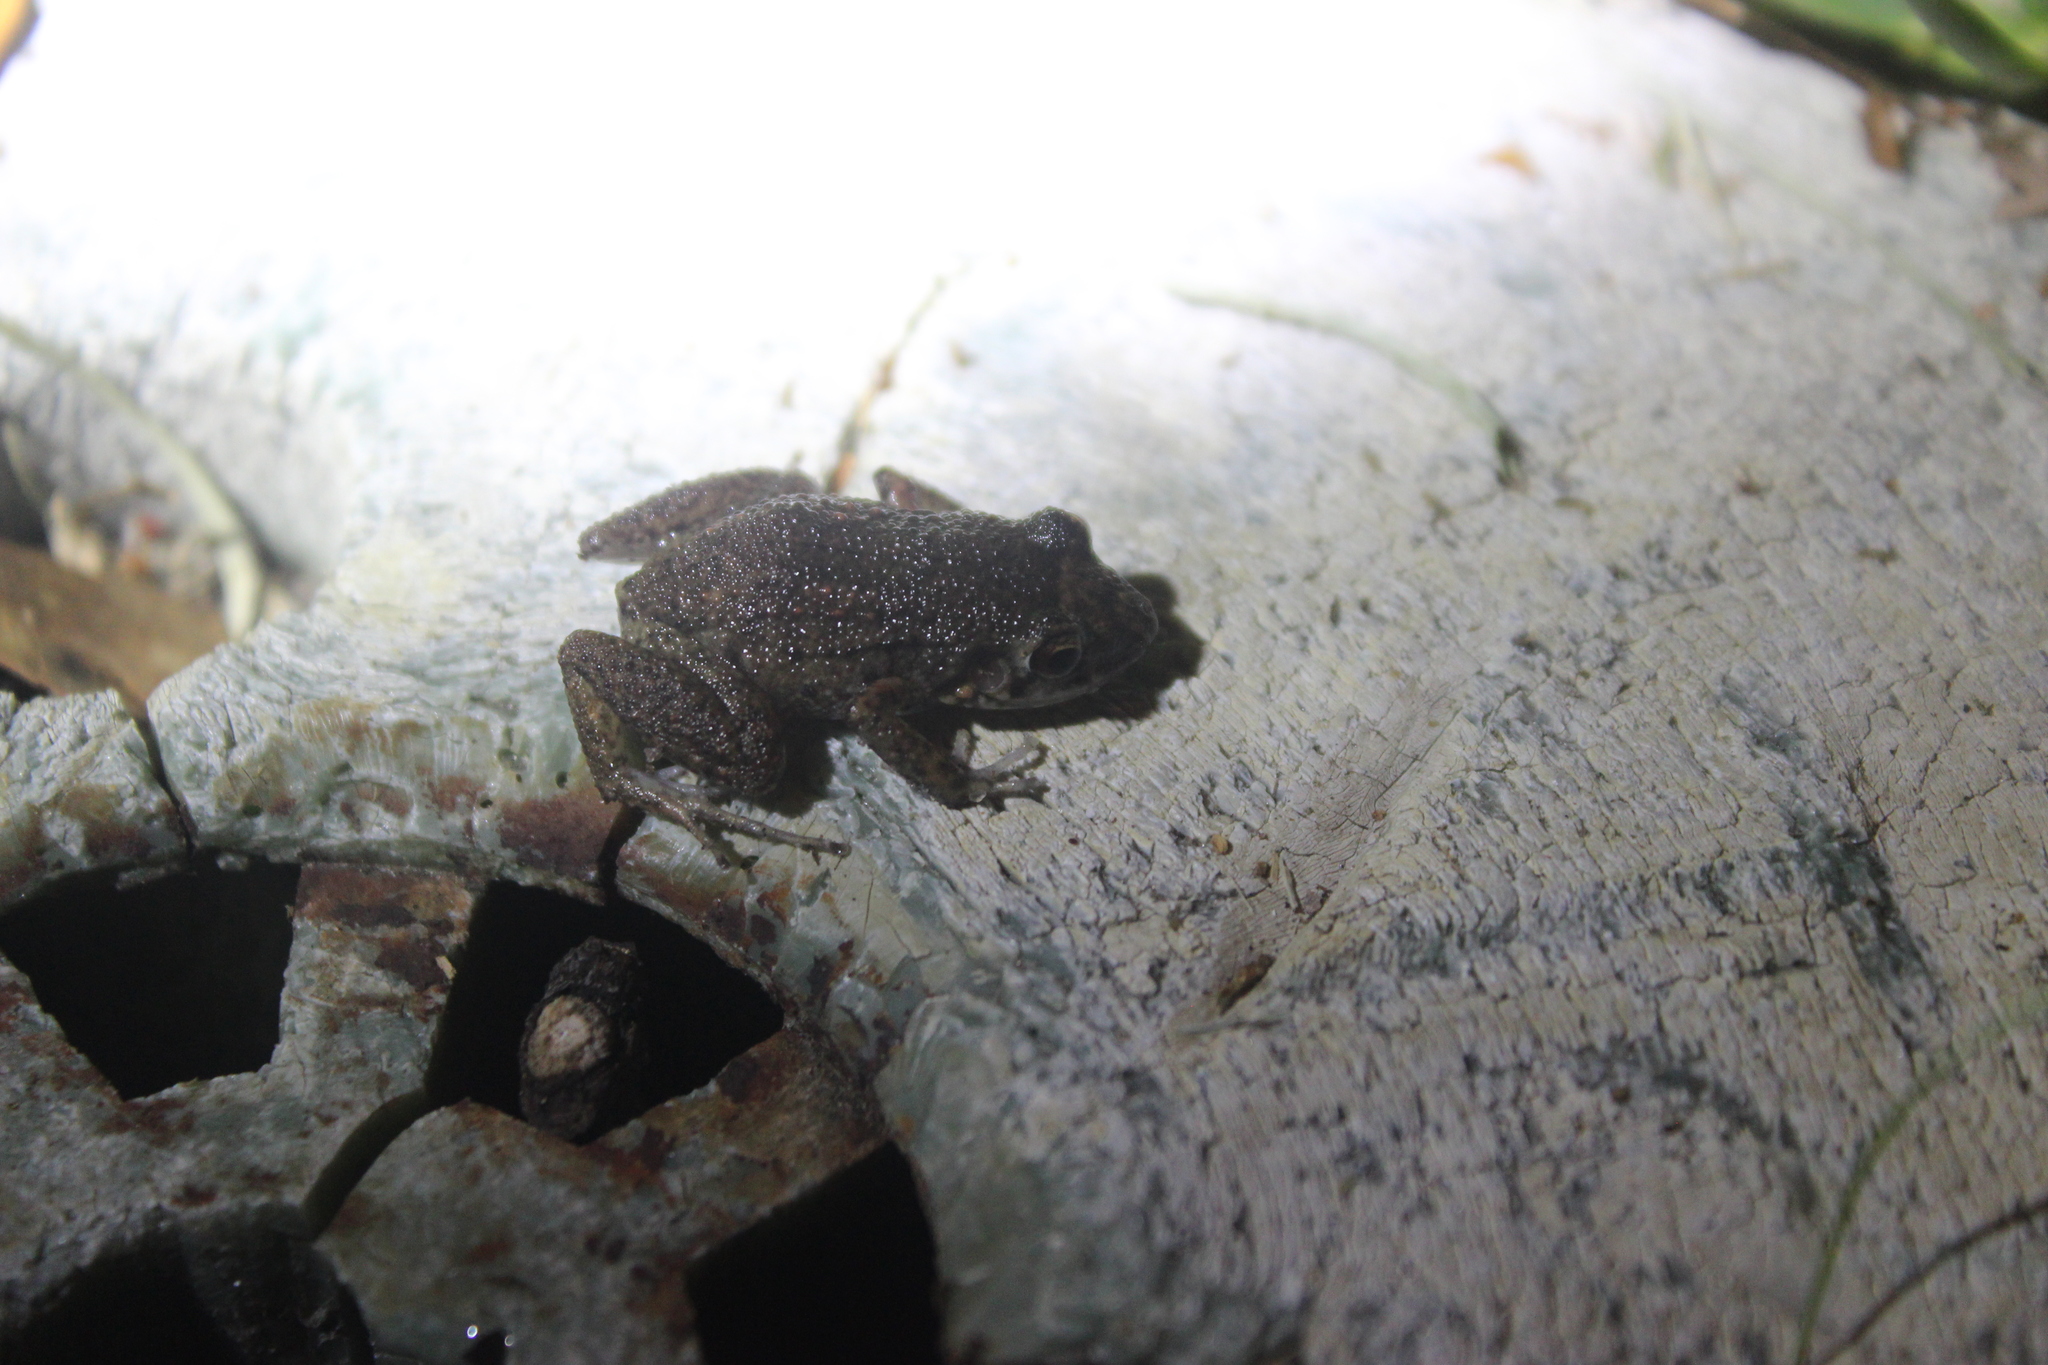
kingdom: Animalia
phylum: Chordata
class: Amphibia
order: Anura
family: Eleutherodactylidae
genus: Eleutherodactylus
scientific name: Eleutherodactylus planirostris
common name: Greenhouse frog
